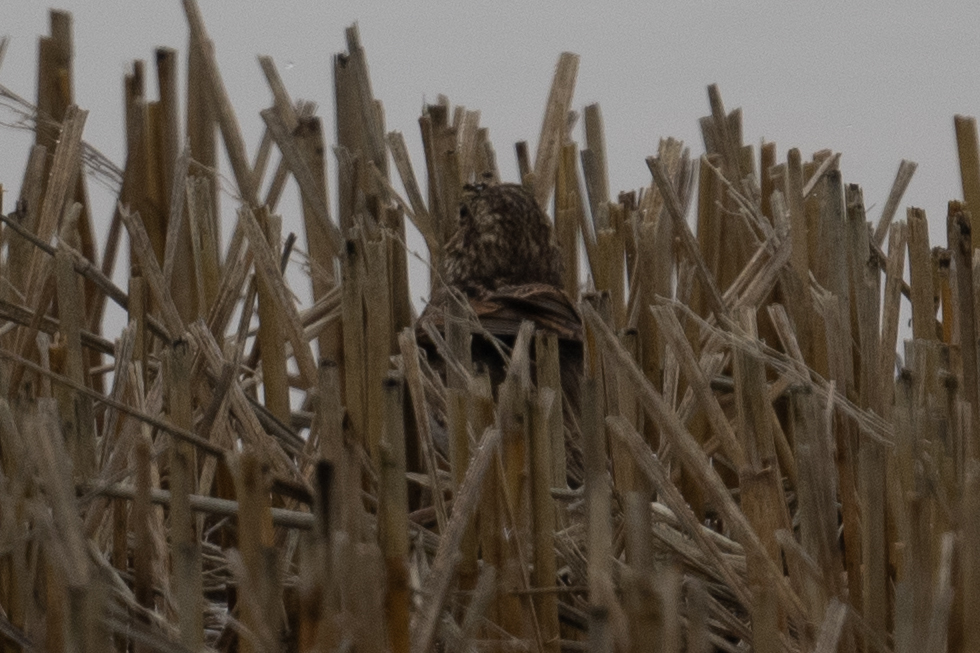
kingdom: Animalia
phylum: Chordata
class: Aves
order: Passeriformes
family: Passerellidae
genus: Passerculus
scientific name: Passerculus sandwichensis
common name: Savannah sparrow
